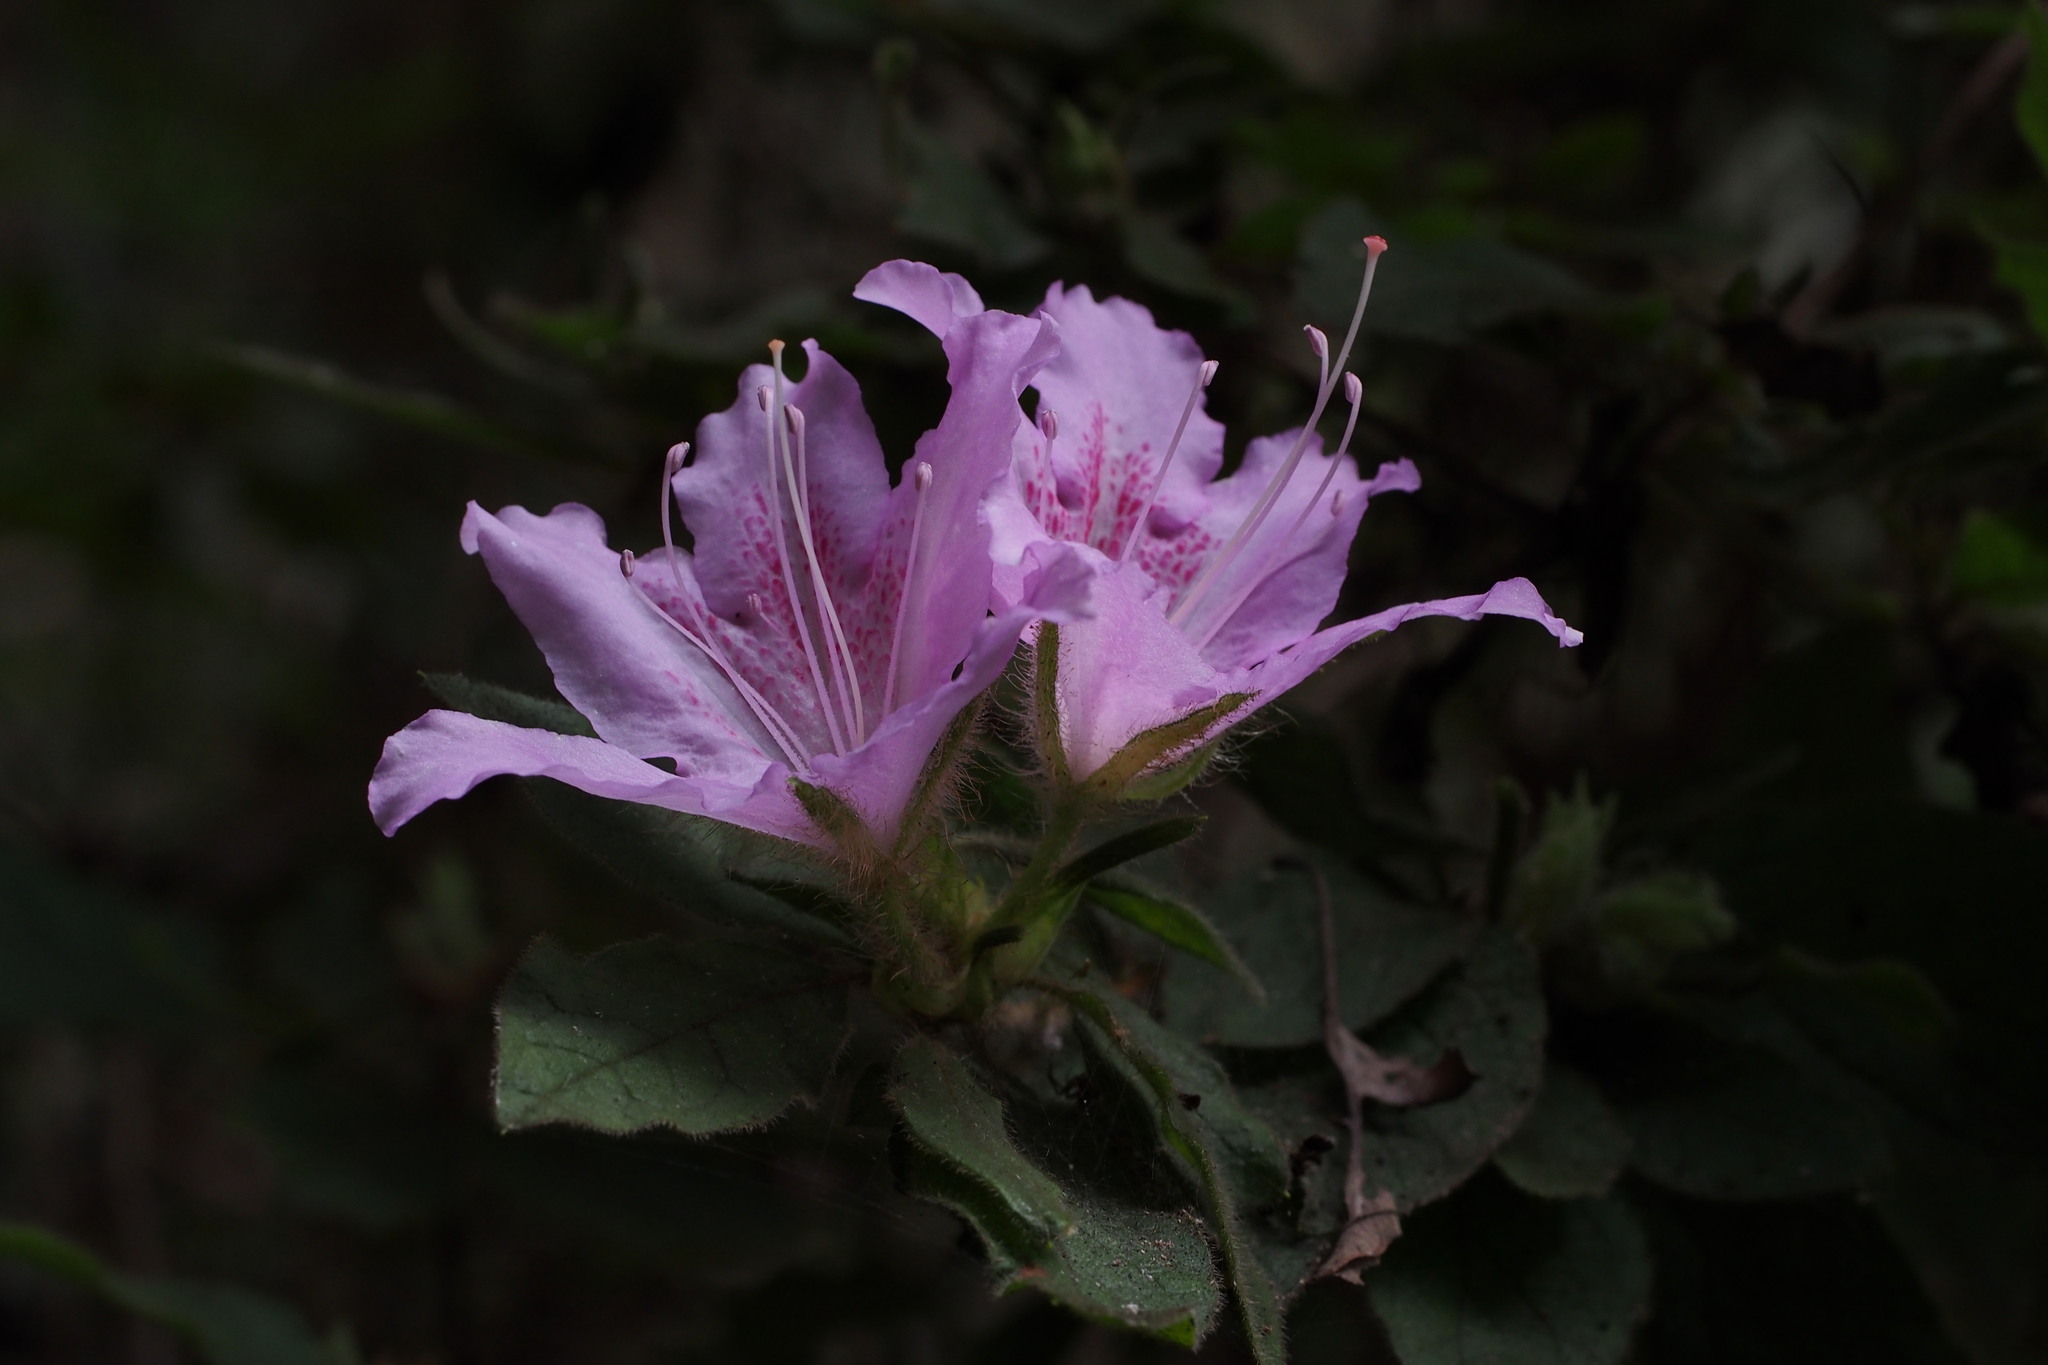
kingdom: Plantae
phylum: Tracheophyta
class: Magnoliopsida
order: Ericales
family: Ericaceae
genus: Rhododendron
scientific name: Rhododendron stenopetalum
